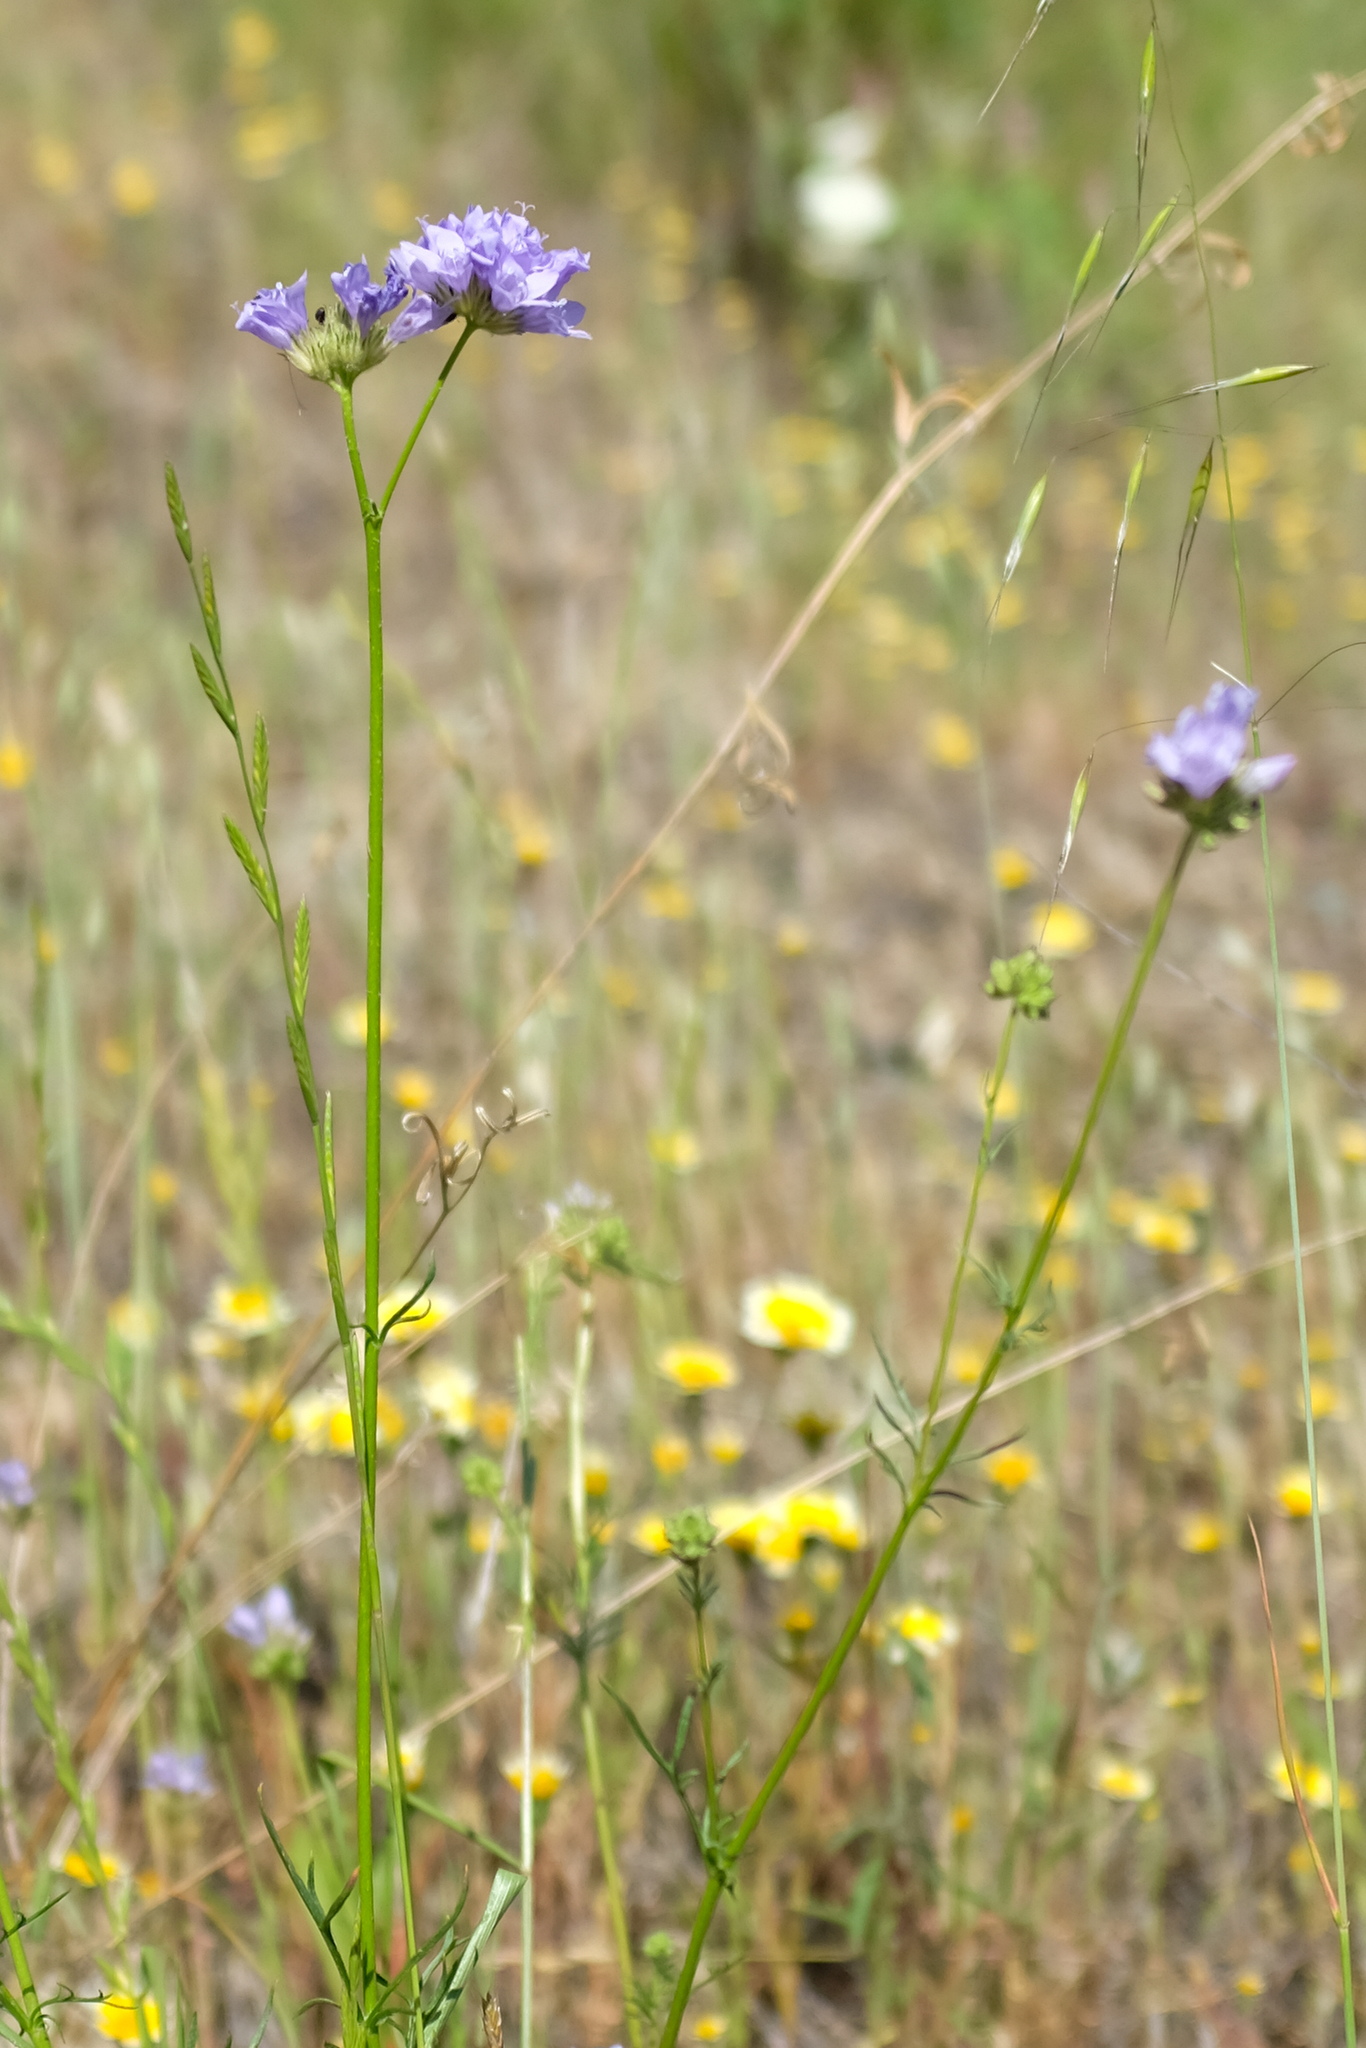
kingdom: Plantae
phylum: Tracheophyta
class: Magnoliopsida
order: Ericales
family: Polemoniaceae
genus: Gilia
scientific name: Gilia achilleifolia
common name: California gily-flower
